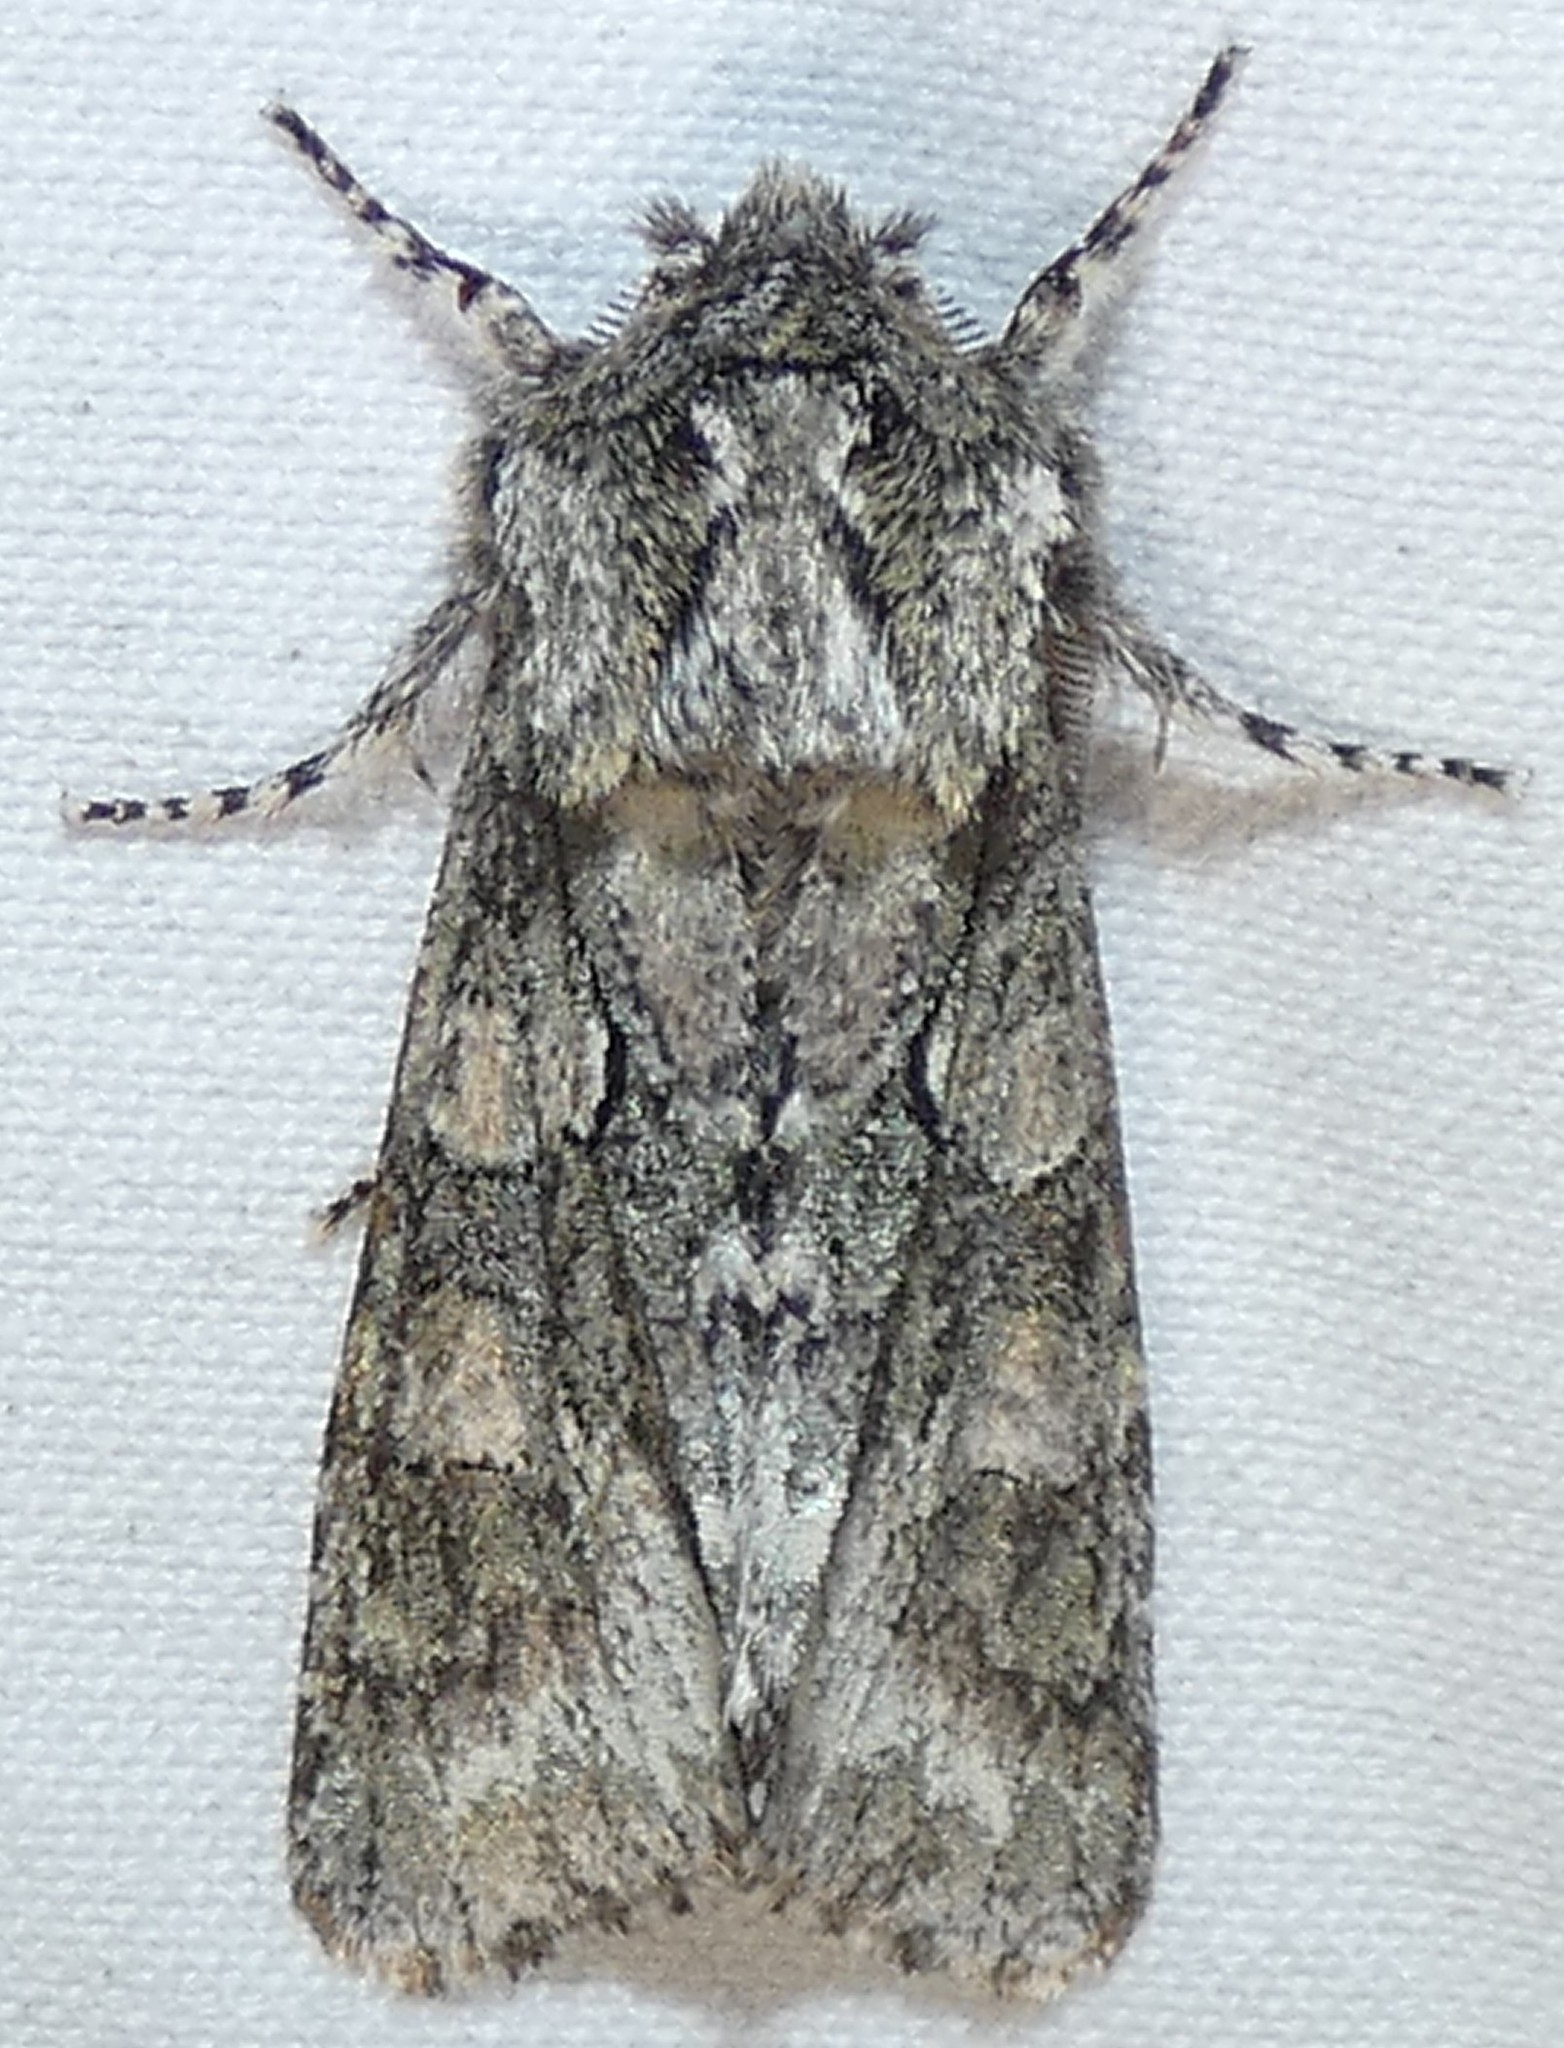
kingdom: Animalia
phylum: Arthropoda
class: Insecta
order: Lepidoptera
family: Noctuidae
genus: Psaphida
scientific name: Psaphida resumens
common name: Figure-eight sallow
